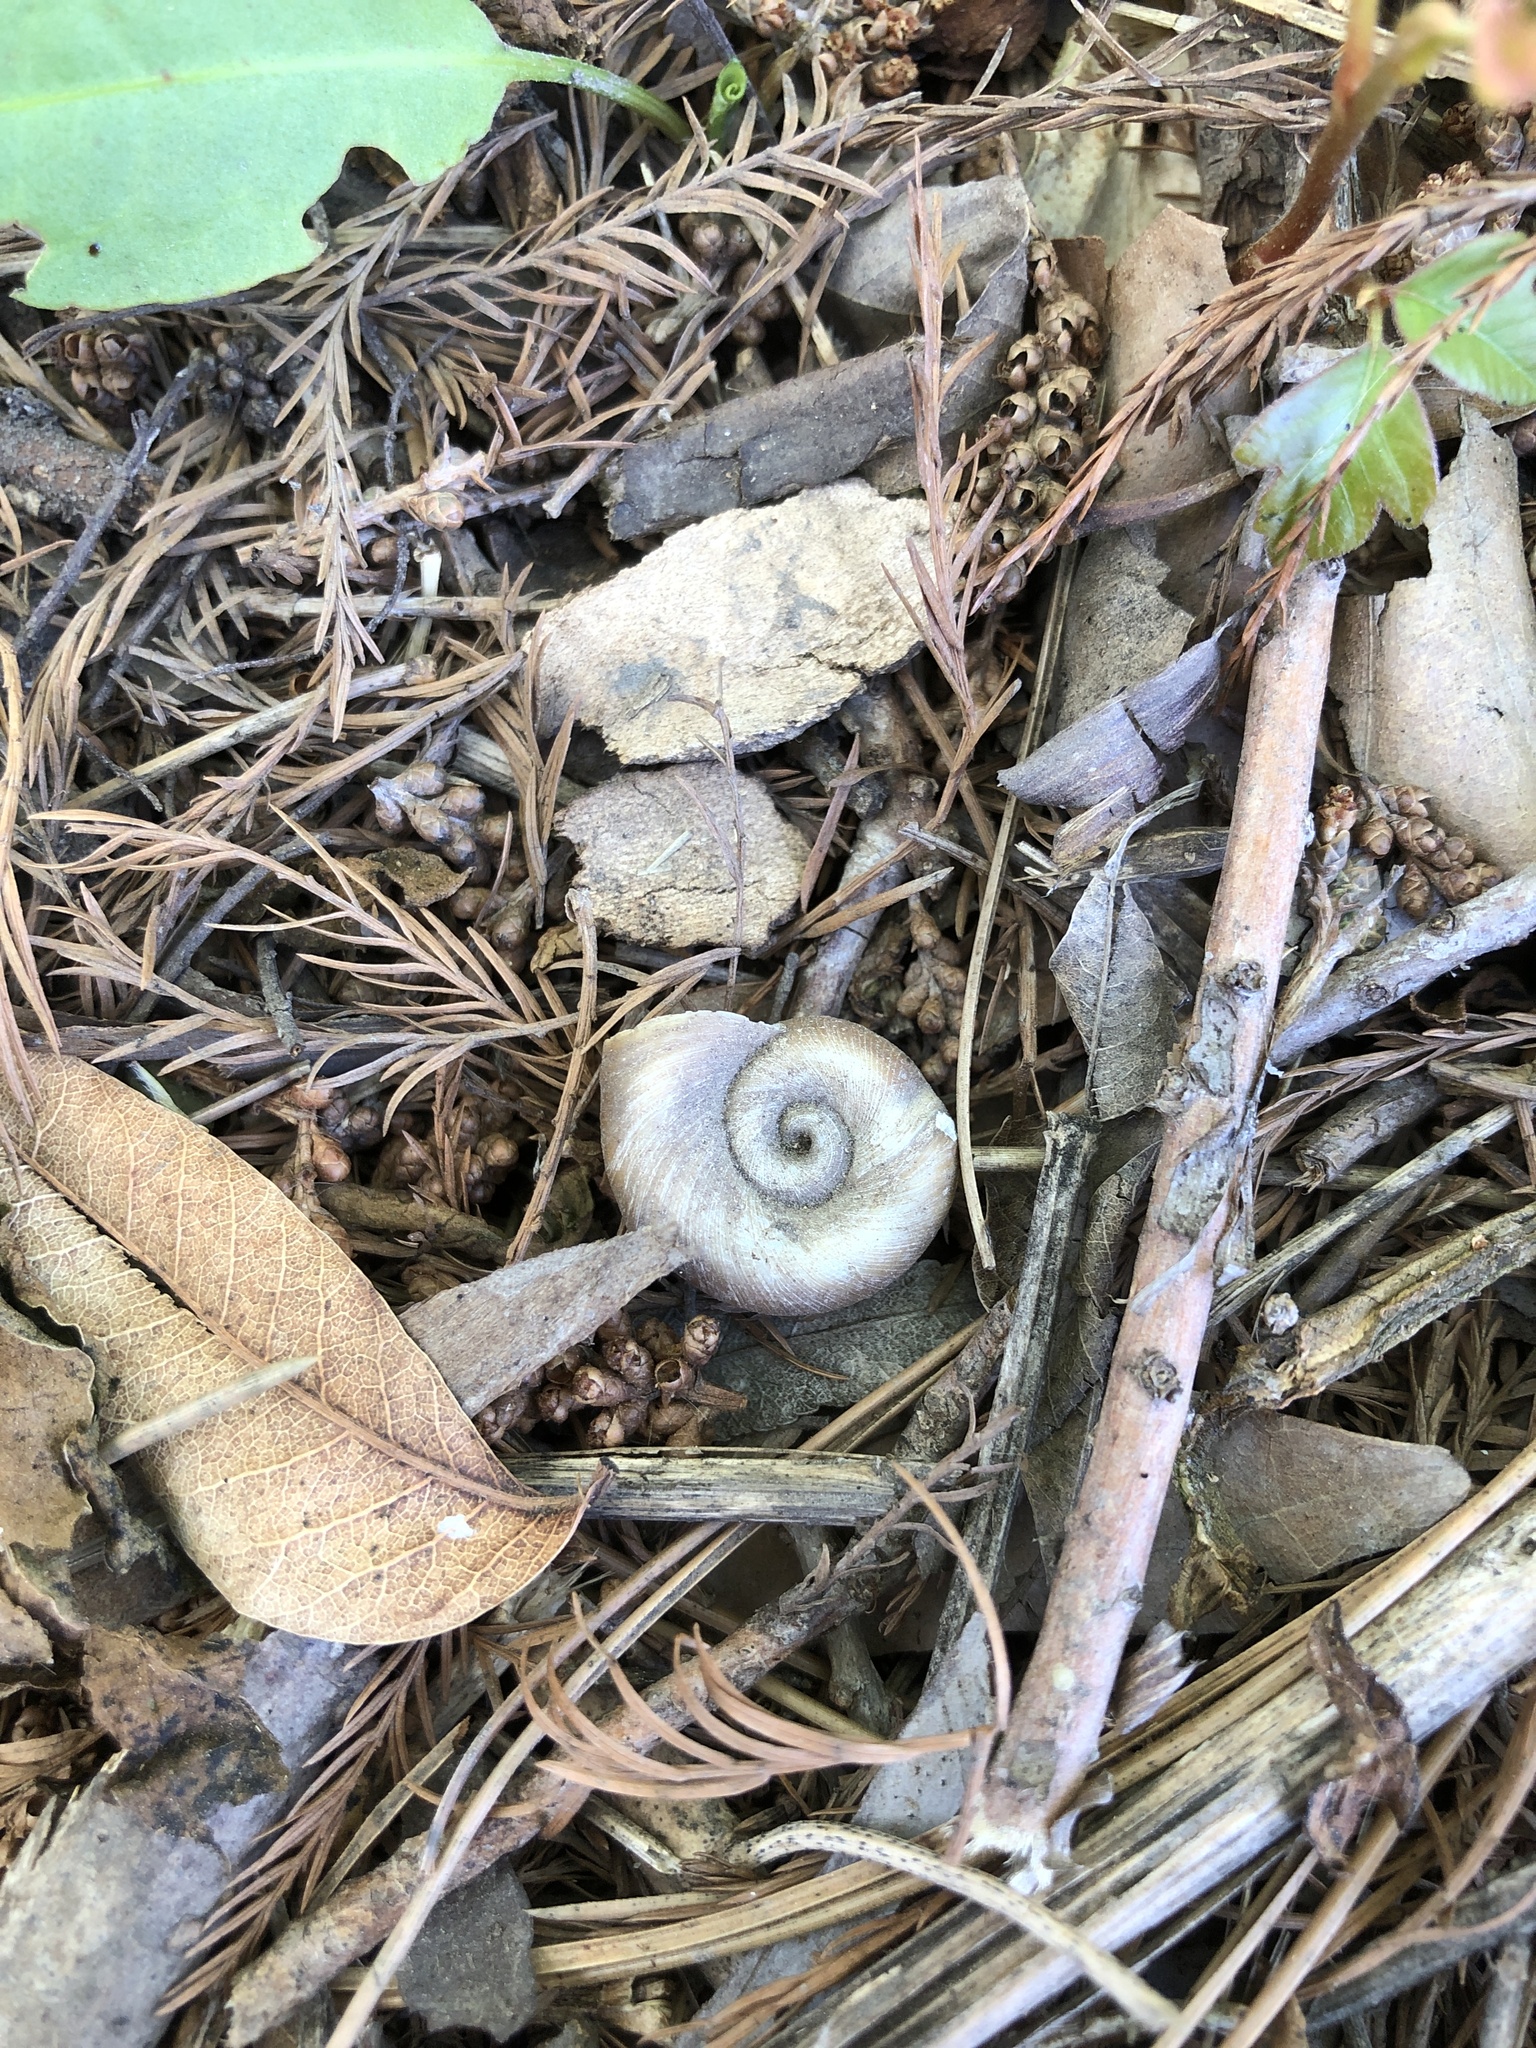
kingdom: Animalia
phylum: Mollusca
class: Gastropoda
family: Planorbidae
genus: Planorbella
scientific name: Planorbella trivolvis
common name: Marsh rams-horn
